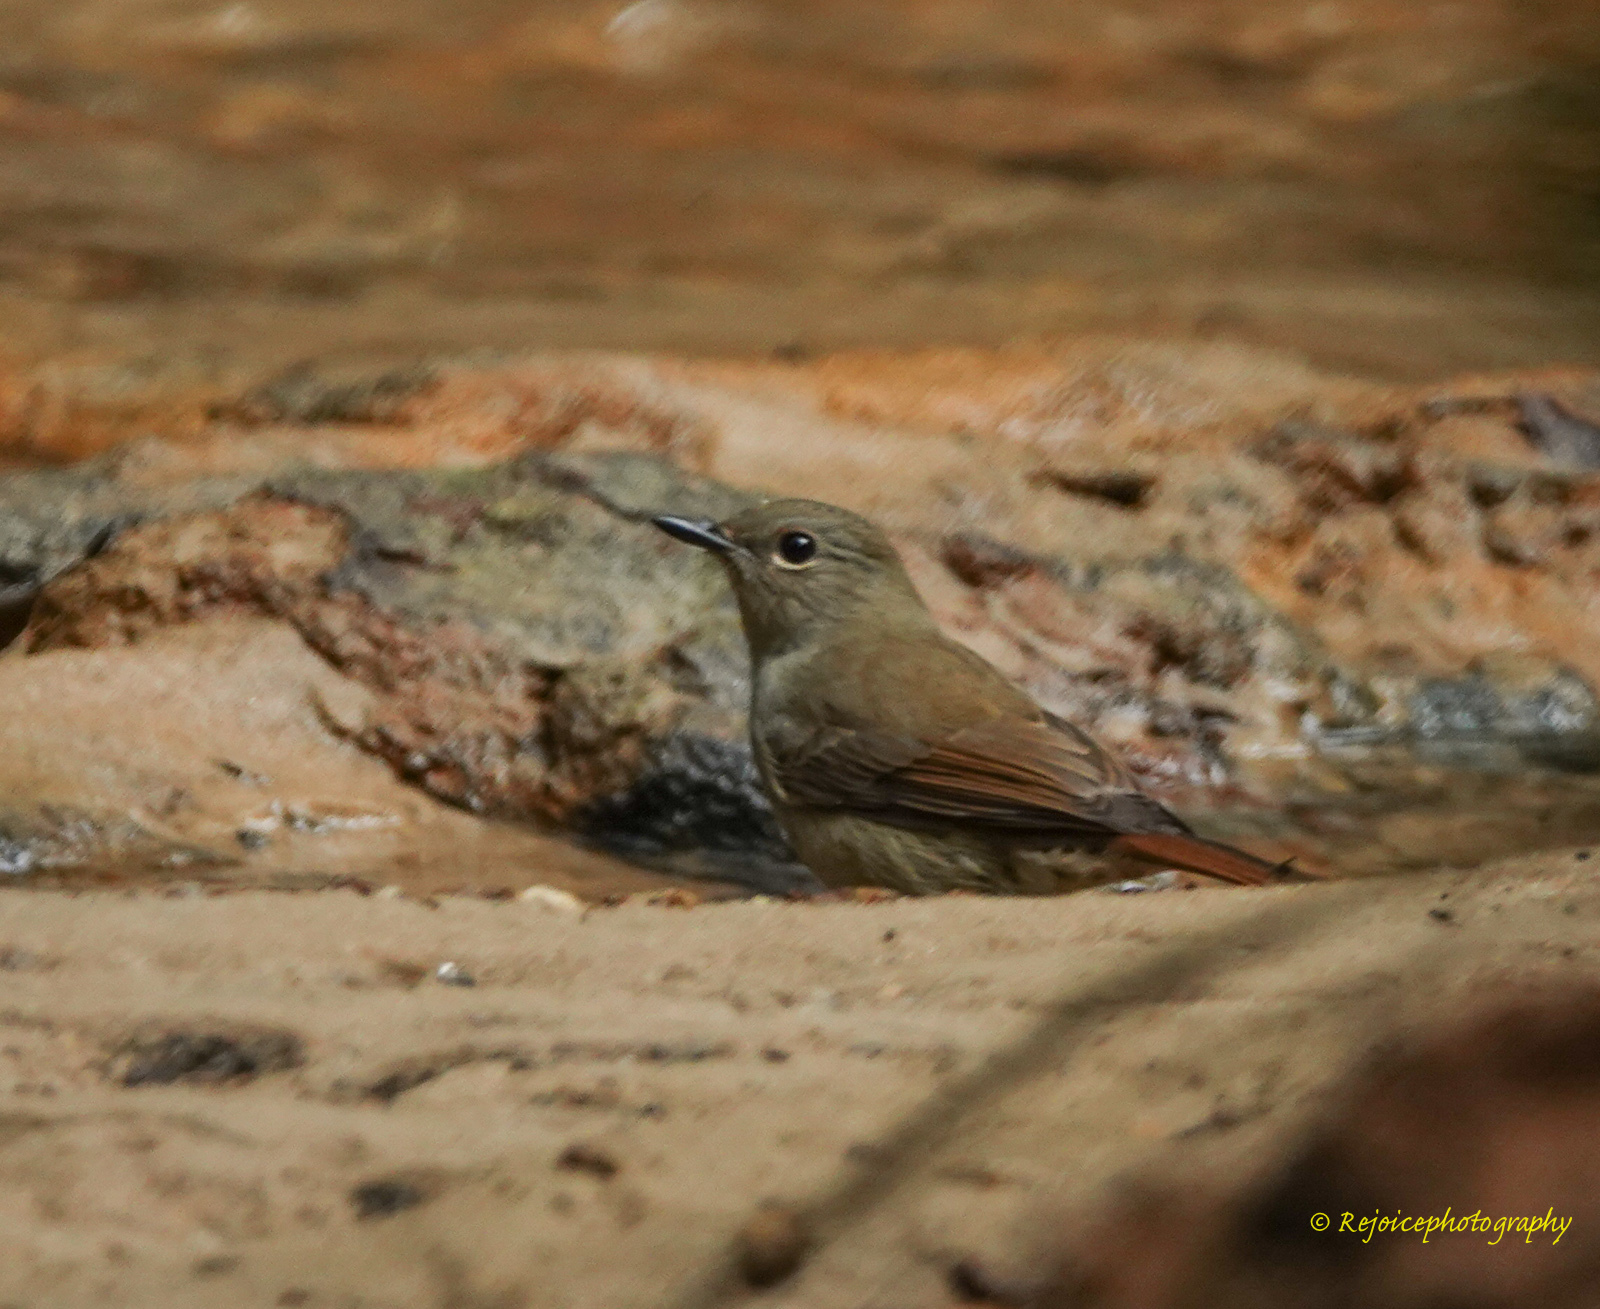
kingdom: Animalia
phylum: Chordata
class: Aves
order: Passeriformes
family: Muscicapidae
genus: Cyornis
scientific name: Cyornis unicolor
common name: Pale blue flycatcher
